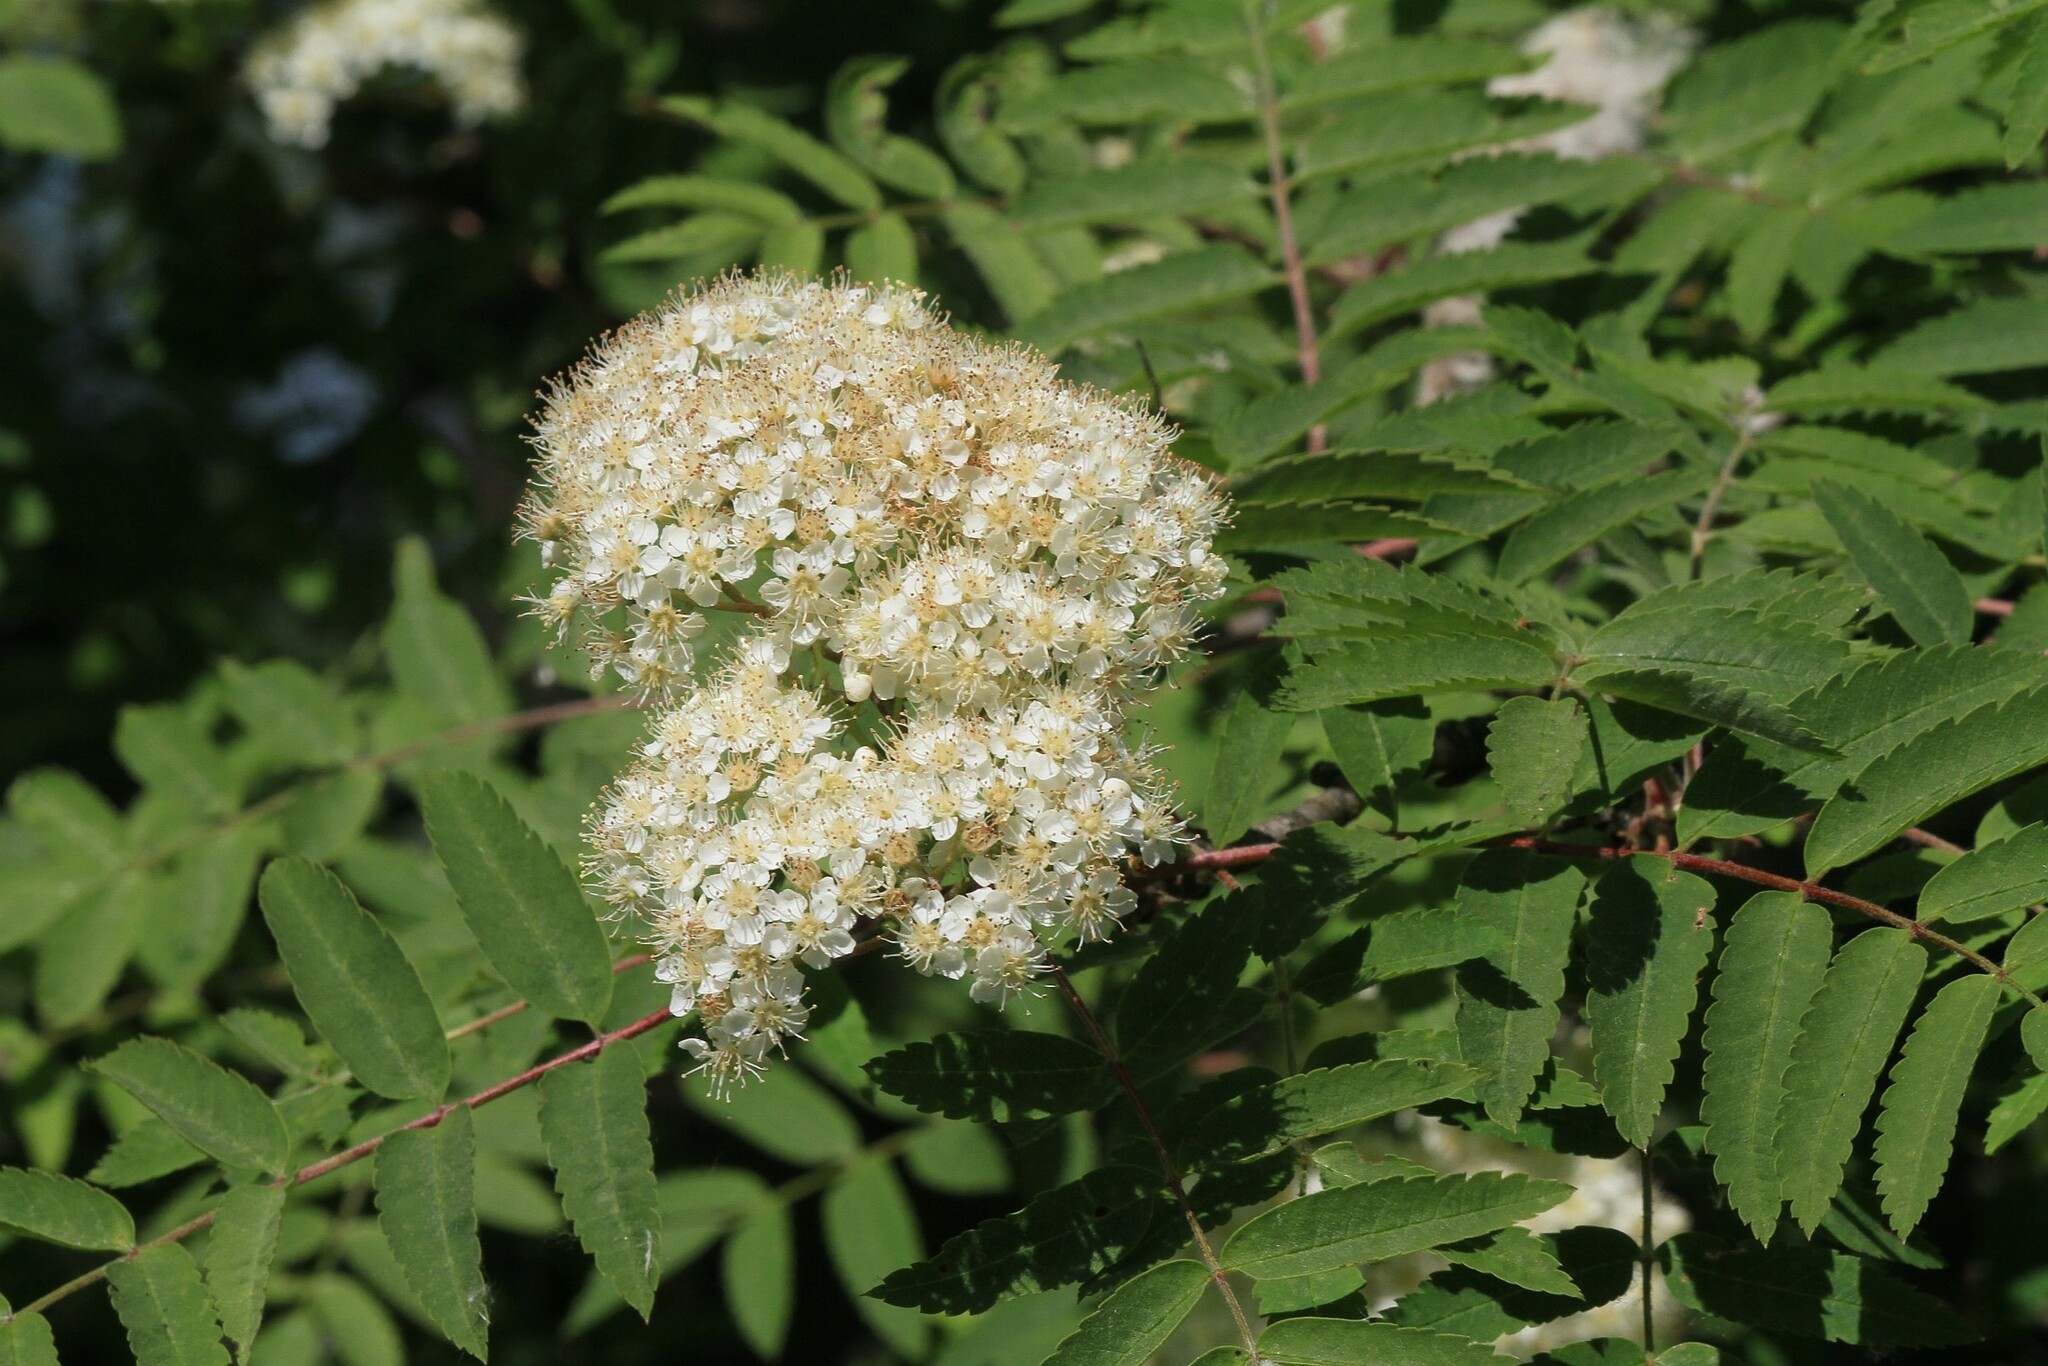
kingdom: Plantae
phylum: Tracheophyta
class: Magnoliopsida
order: Rosales
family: Rosaceae
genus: Sorbus
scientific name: Sorbus aucuparia
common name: Rowan
